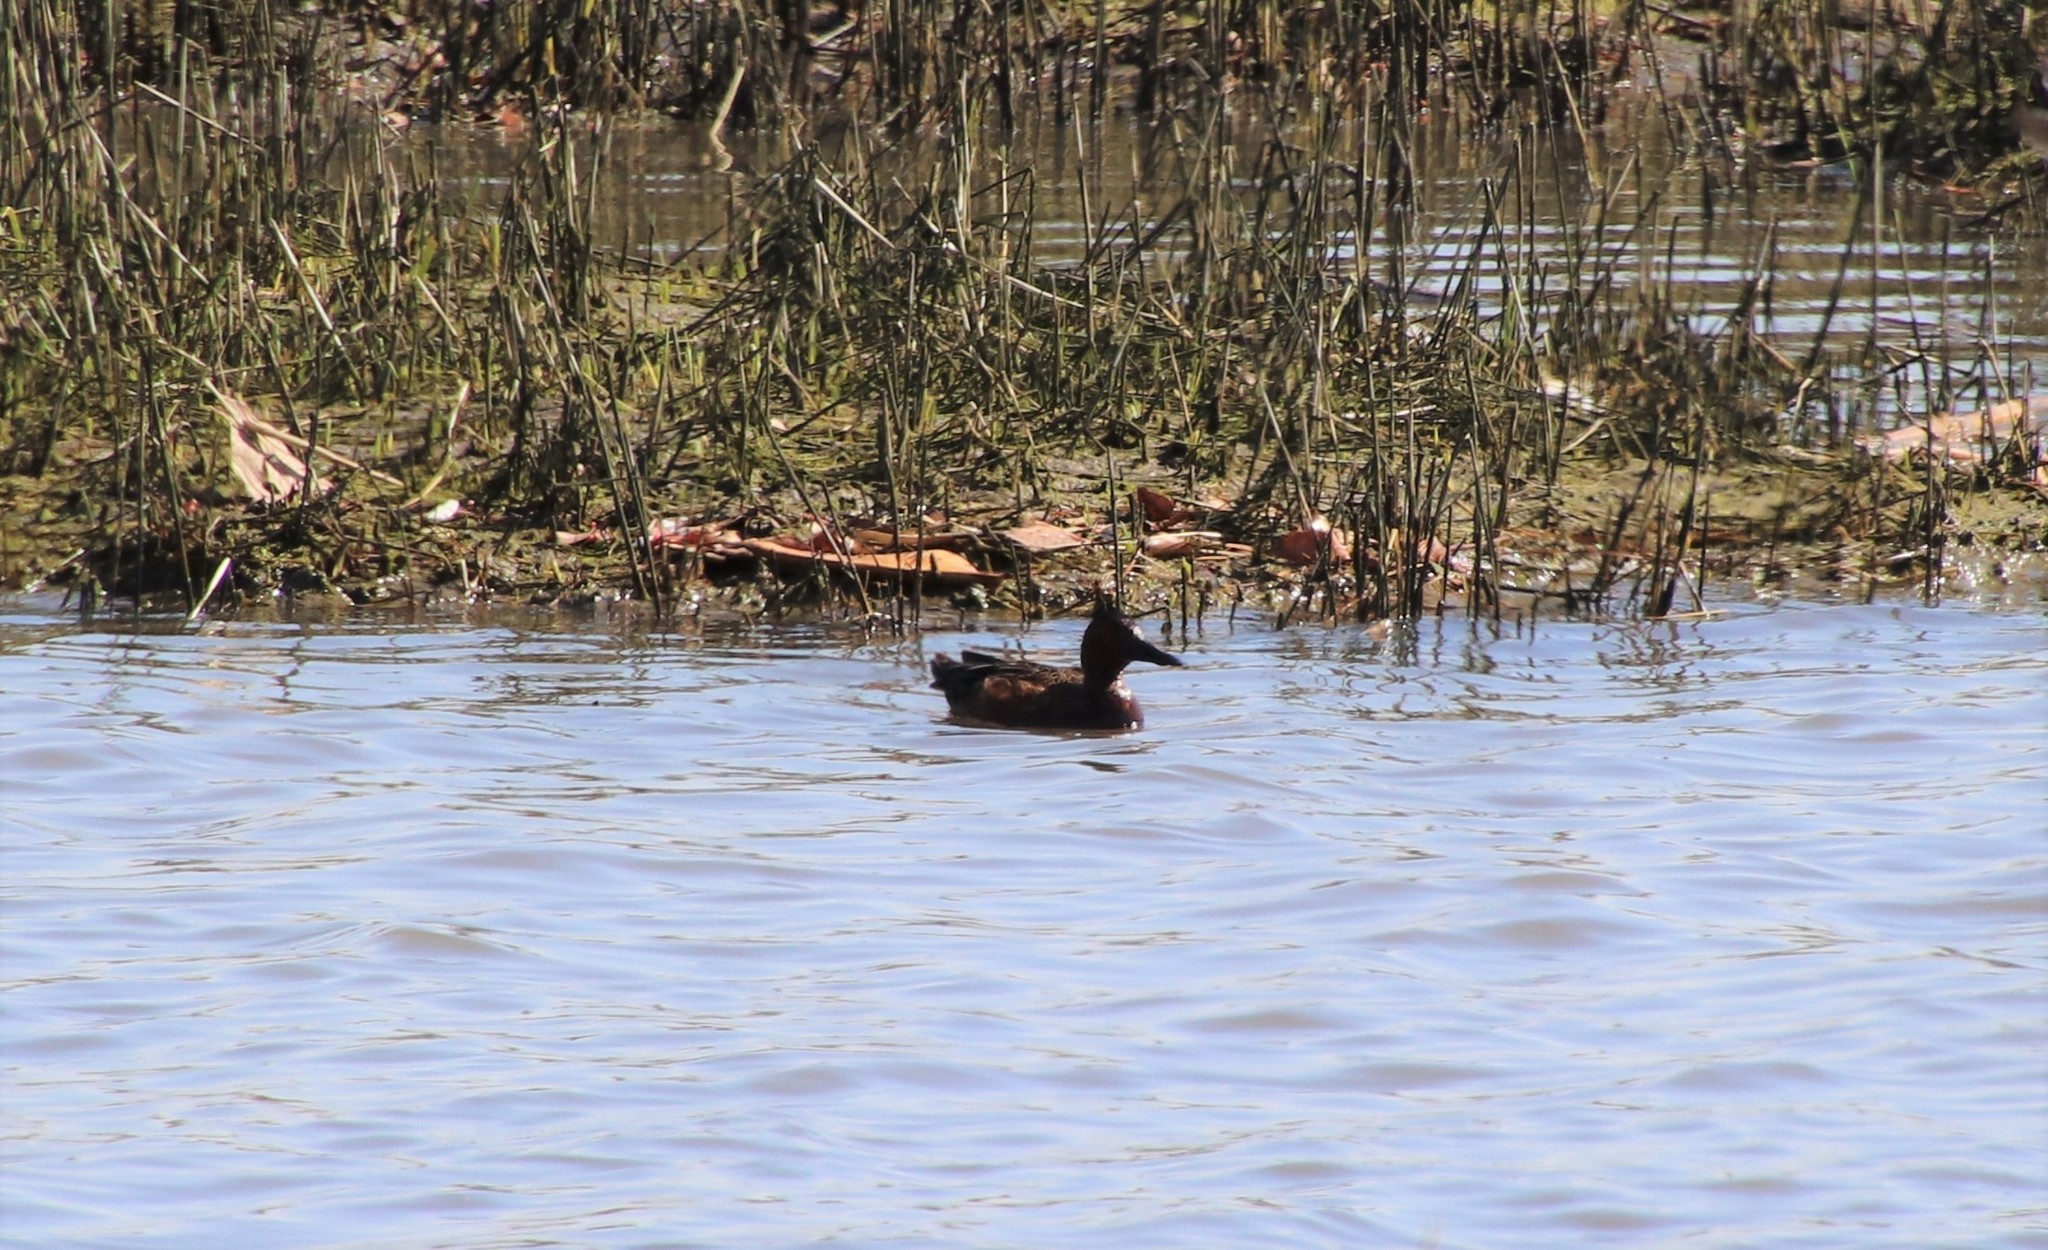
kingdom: Animalia
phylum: Chordata
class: Aves
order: Anseriformes
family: Anatidae
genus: Spatula
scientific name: Spatula cyanoptera
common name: Cinnamon teal
